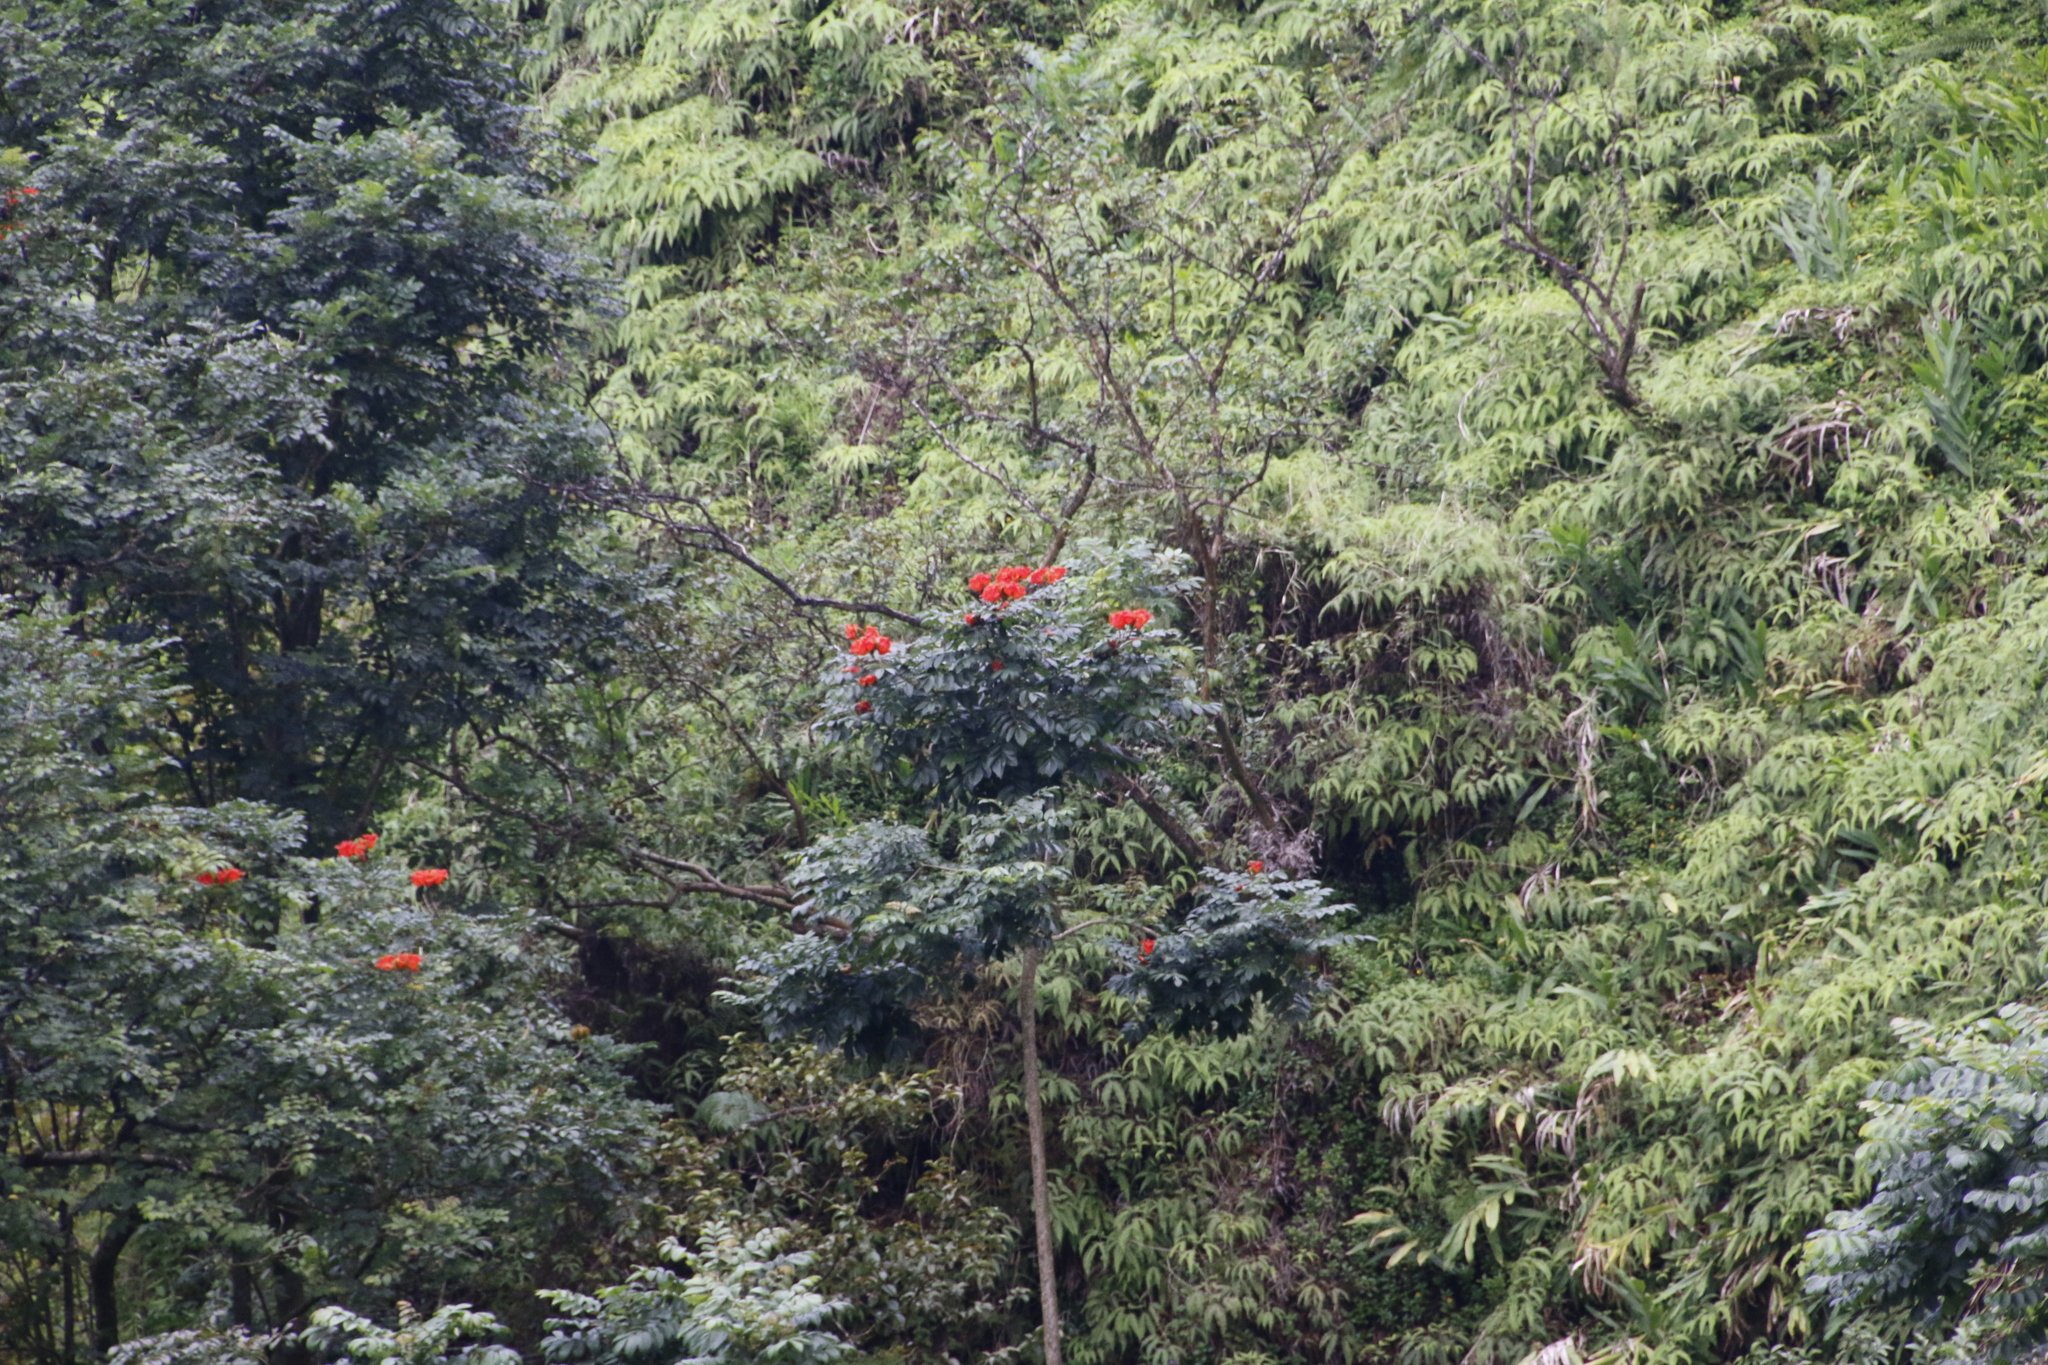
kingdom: Plantae
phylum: Tracheophyta
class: Magnoliopsida
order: Lamiales
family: Bignoniaceae
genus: Spathodea
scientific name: Spathodea campanulata
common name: African tuliptree
